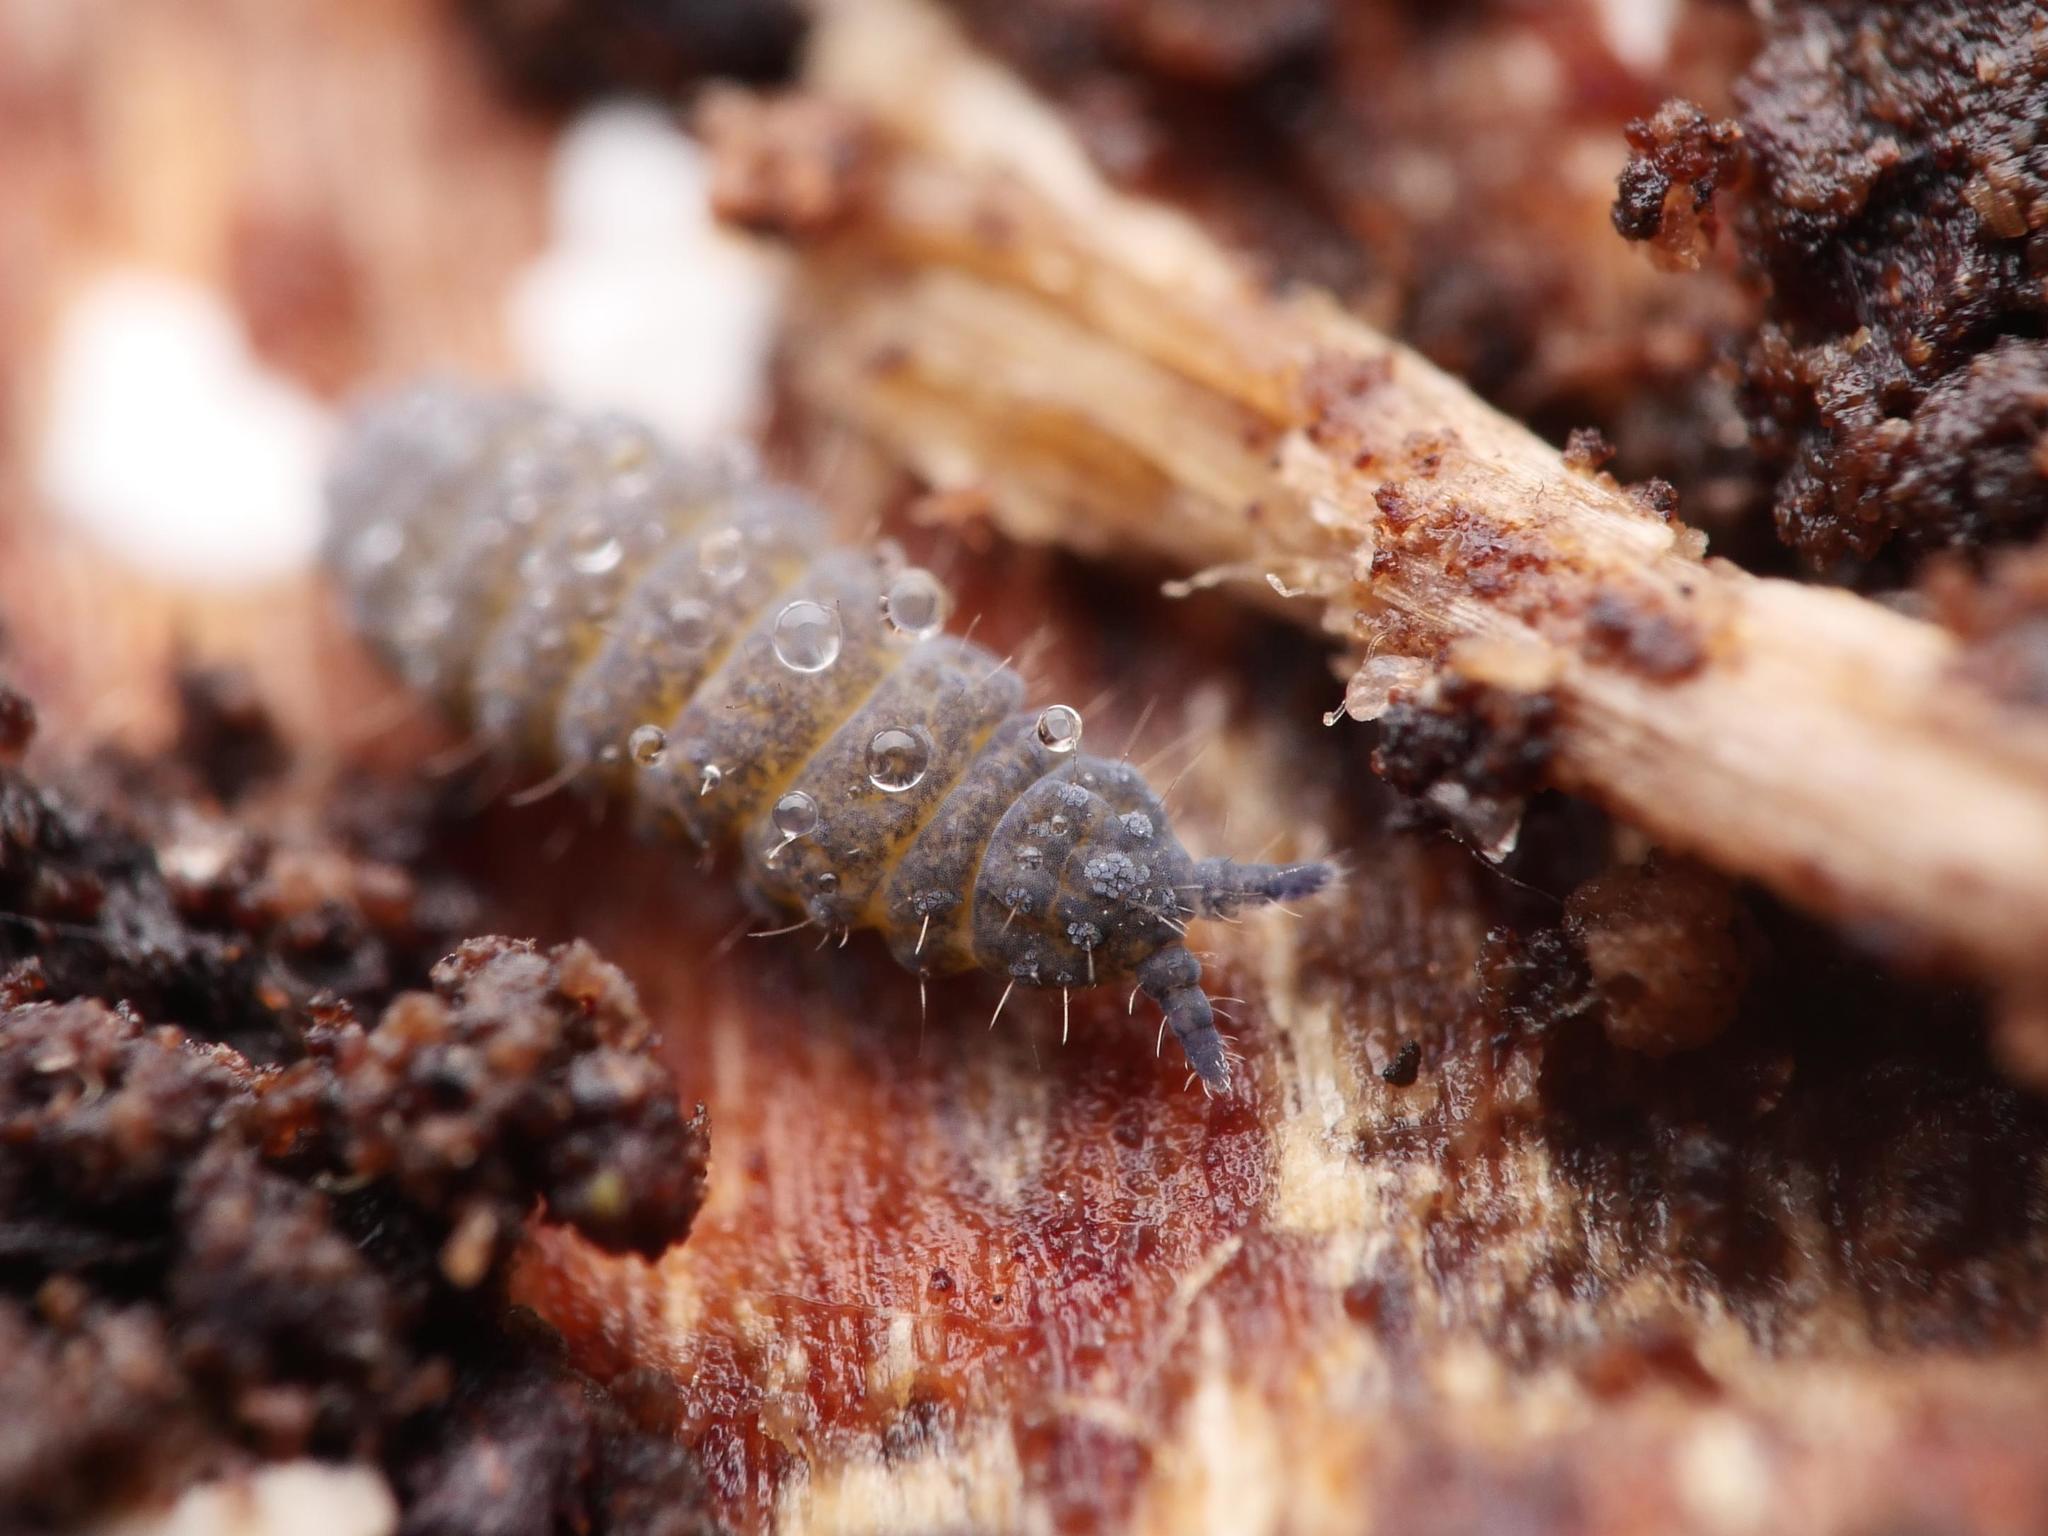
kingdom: Animalia
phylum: Arthropoda
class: Collembola
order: Poduromorpha
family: Neanuridae
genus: Neanura
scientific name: Neanura muscorum
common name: Springtail
